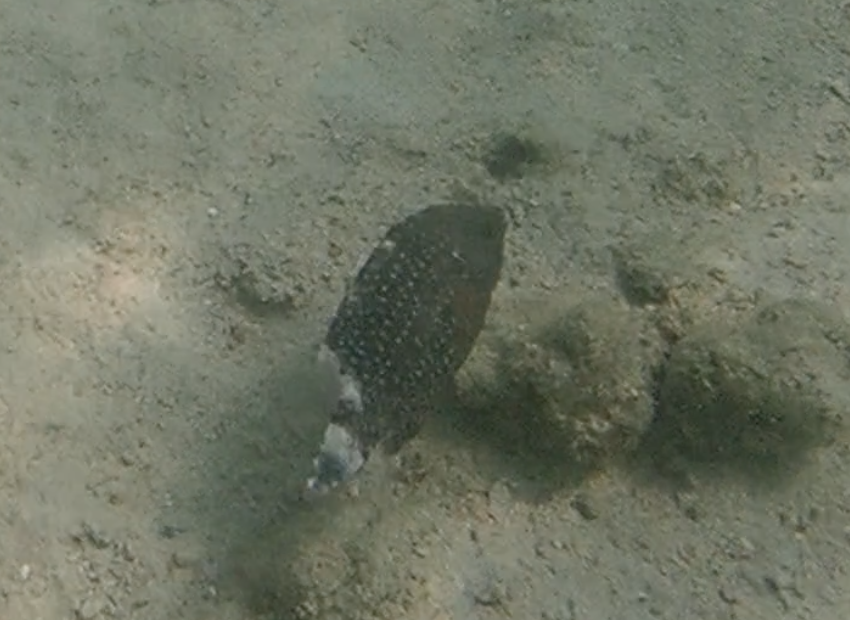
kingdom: Animalia
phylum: Chordata
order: Perciformes
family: Labridae
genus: Cheilinus
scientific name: Cheilinus chlorourus
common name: Floral wrasse
